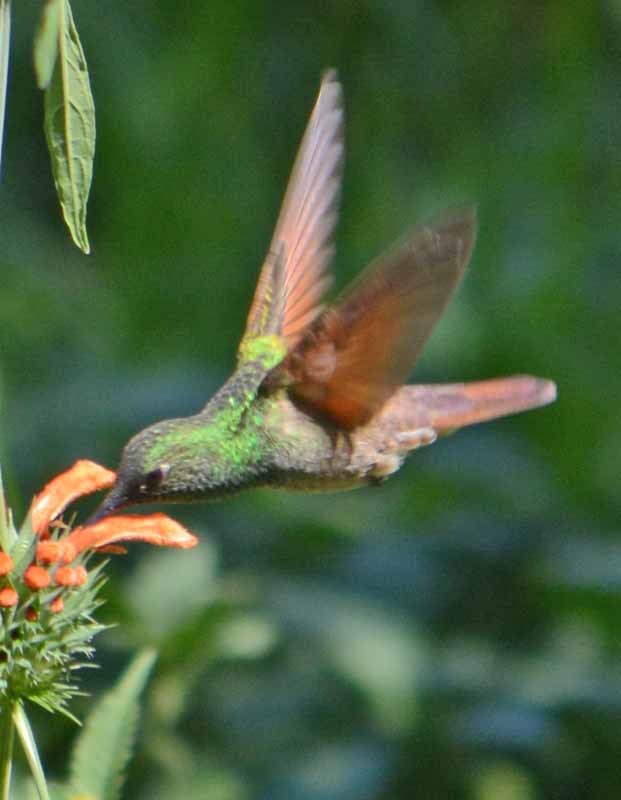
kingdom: Animalia
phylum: Chordata
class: Aves
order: Apodiformes
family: Trochilidae
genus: Saucerottia
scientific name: Saucerottia beryllina
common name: Berylline hummingbird
